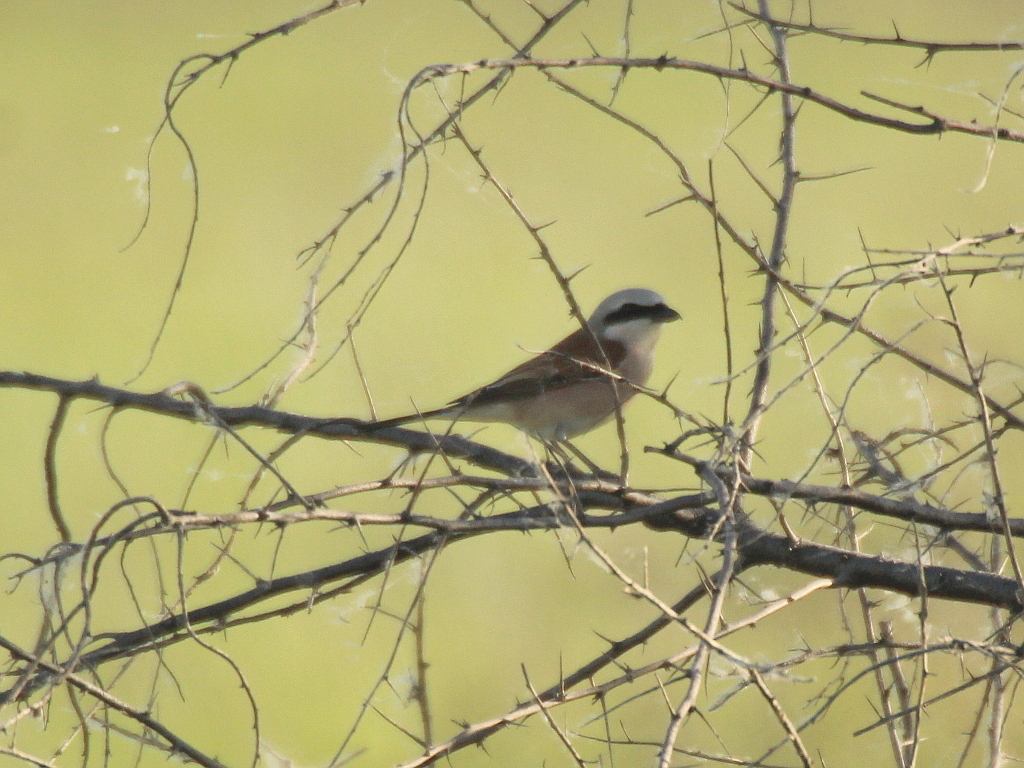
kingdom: Animalia
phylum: Chordata
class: Aves
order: Passeriformes
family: Laniidae
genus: Lanius
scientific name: Lanius collurio
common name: Red-backed shrike
